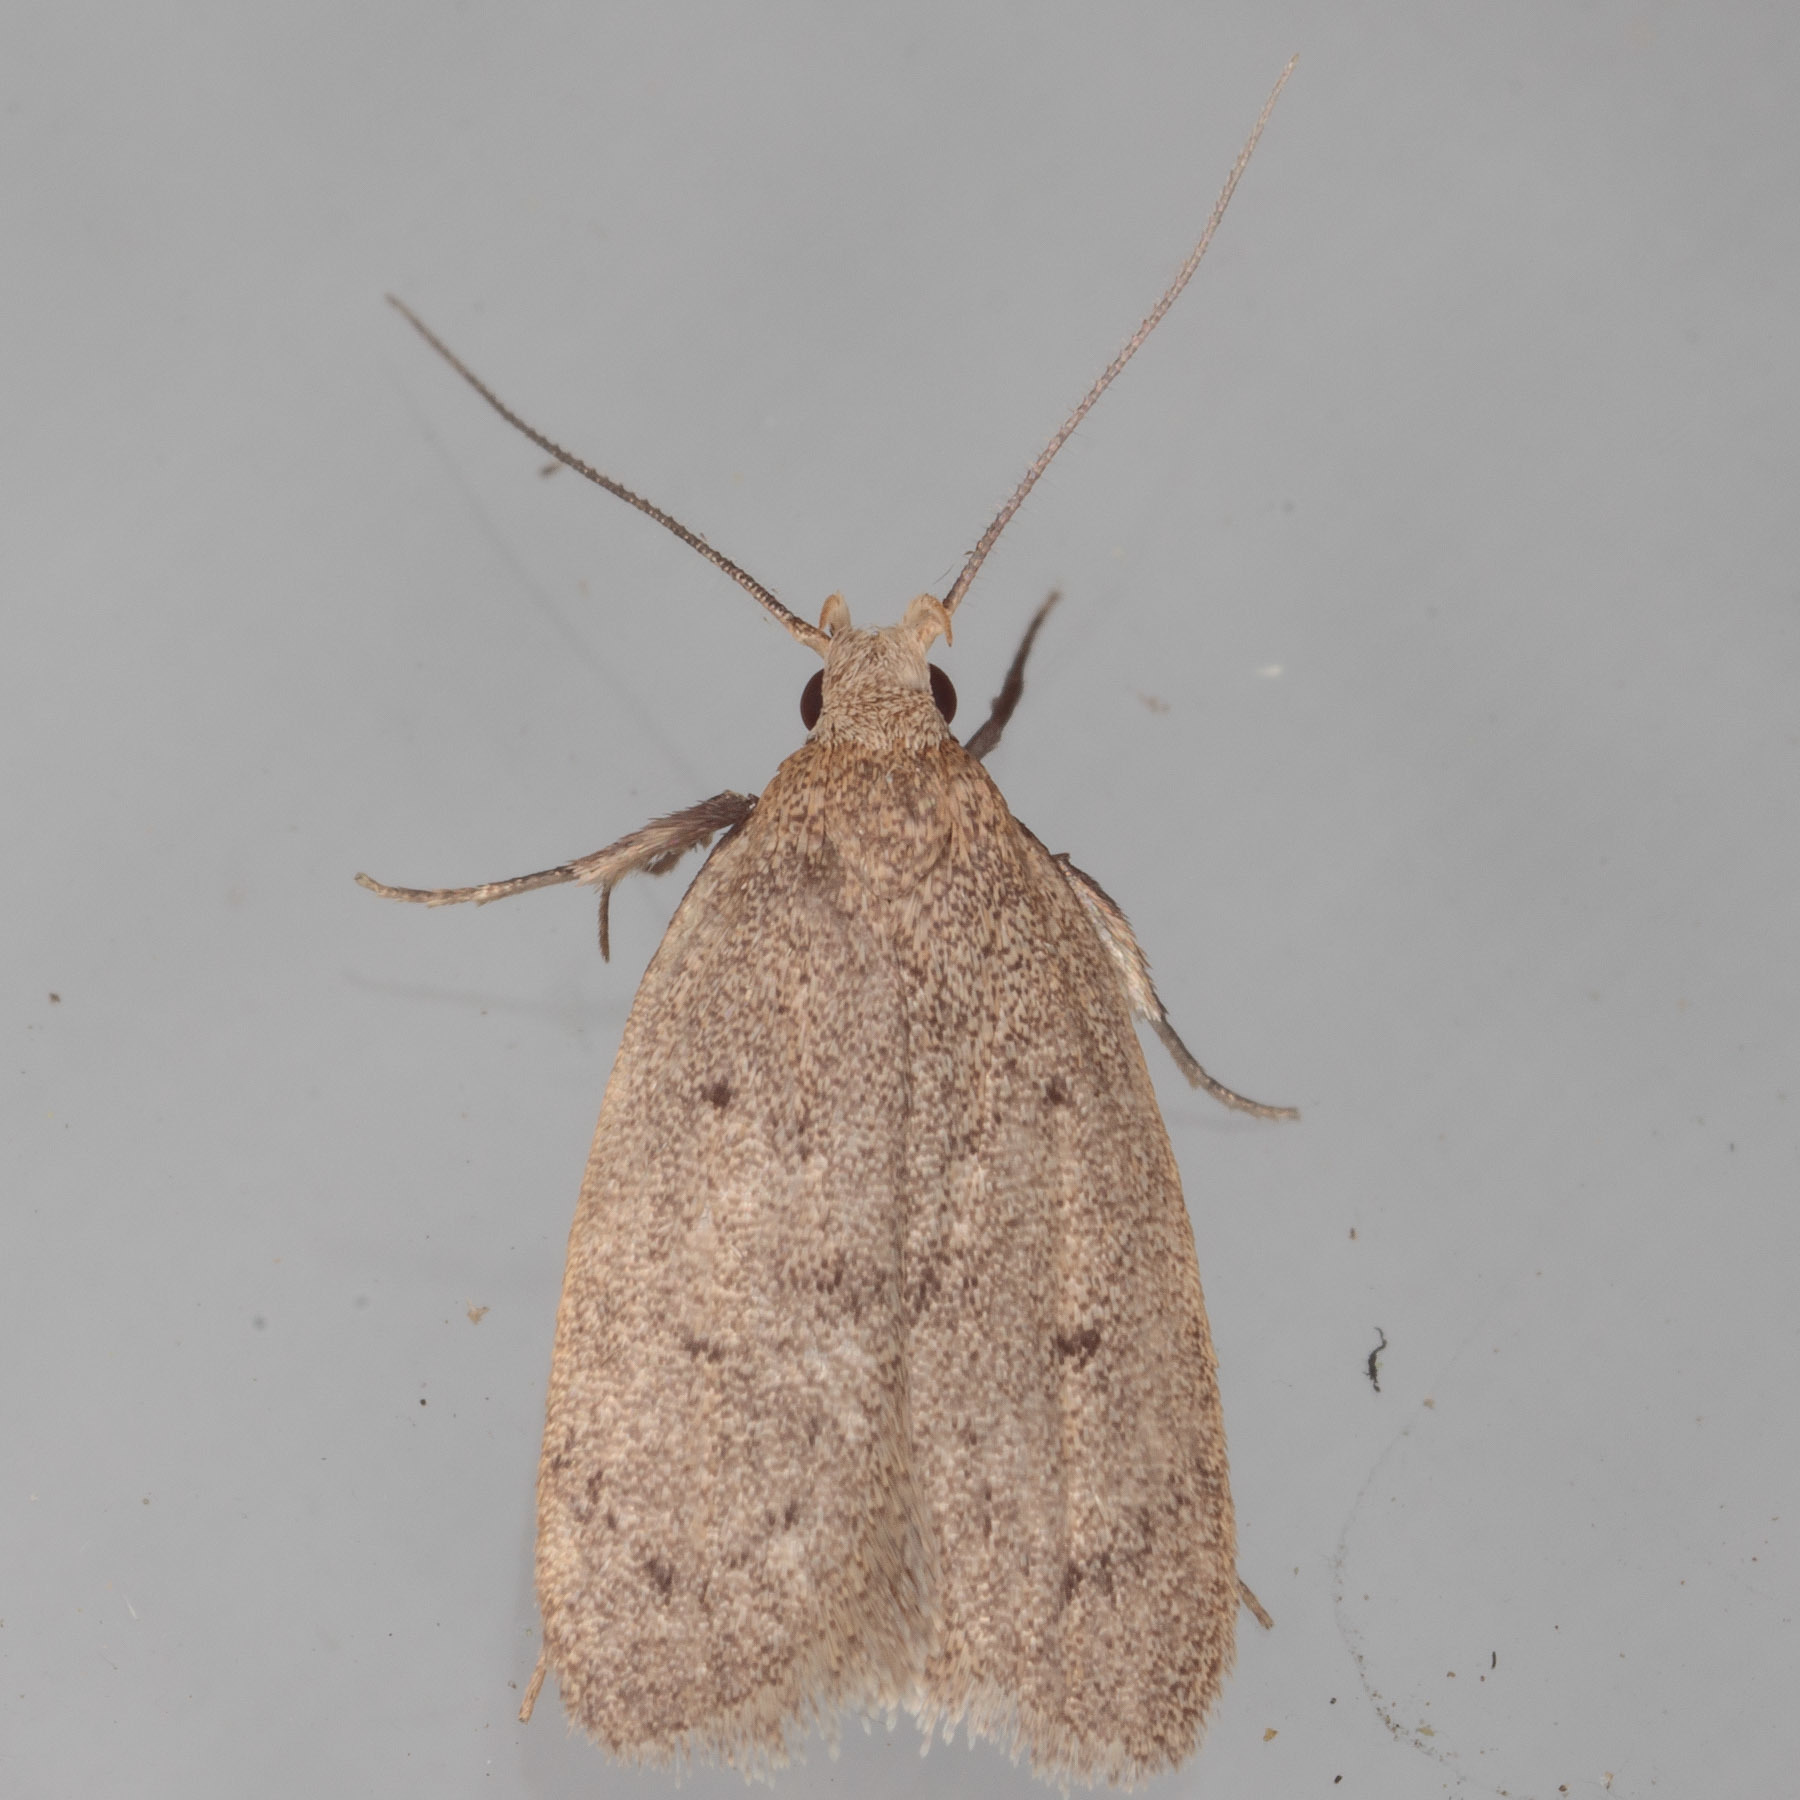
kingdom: Animalia
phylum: Arthropoda
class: Insecta
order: Lepidoptera
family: Oecophoridae
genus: Inga
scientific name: Inga obscuromaculella
